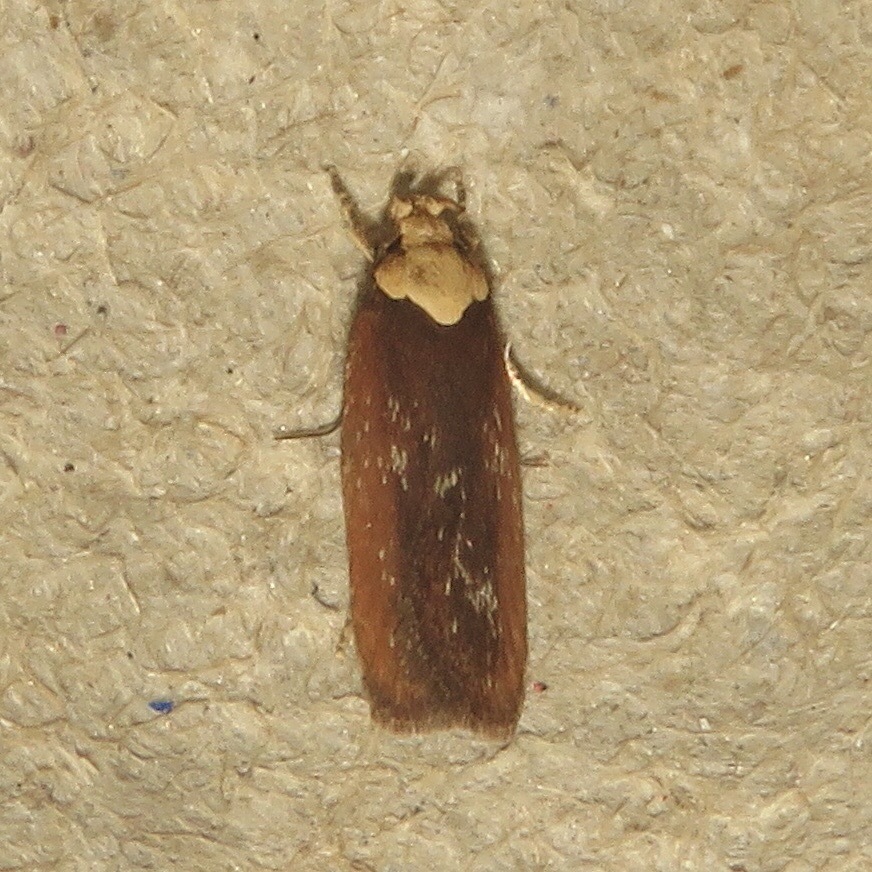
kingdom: Animalia
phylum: Arthropoda
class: Insecta
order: Lepidoptera
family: Depressariidae
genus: Depressaria
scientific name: Depressaria depressana
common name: Lost flat-body
